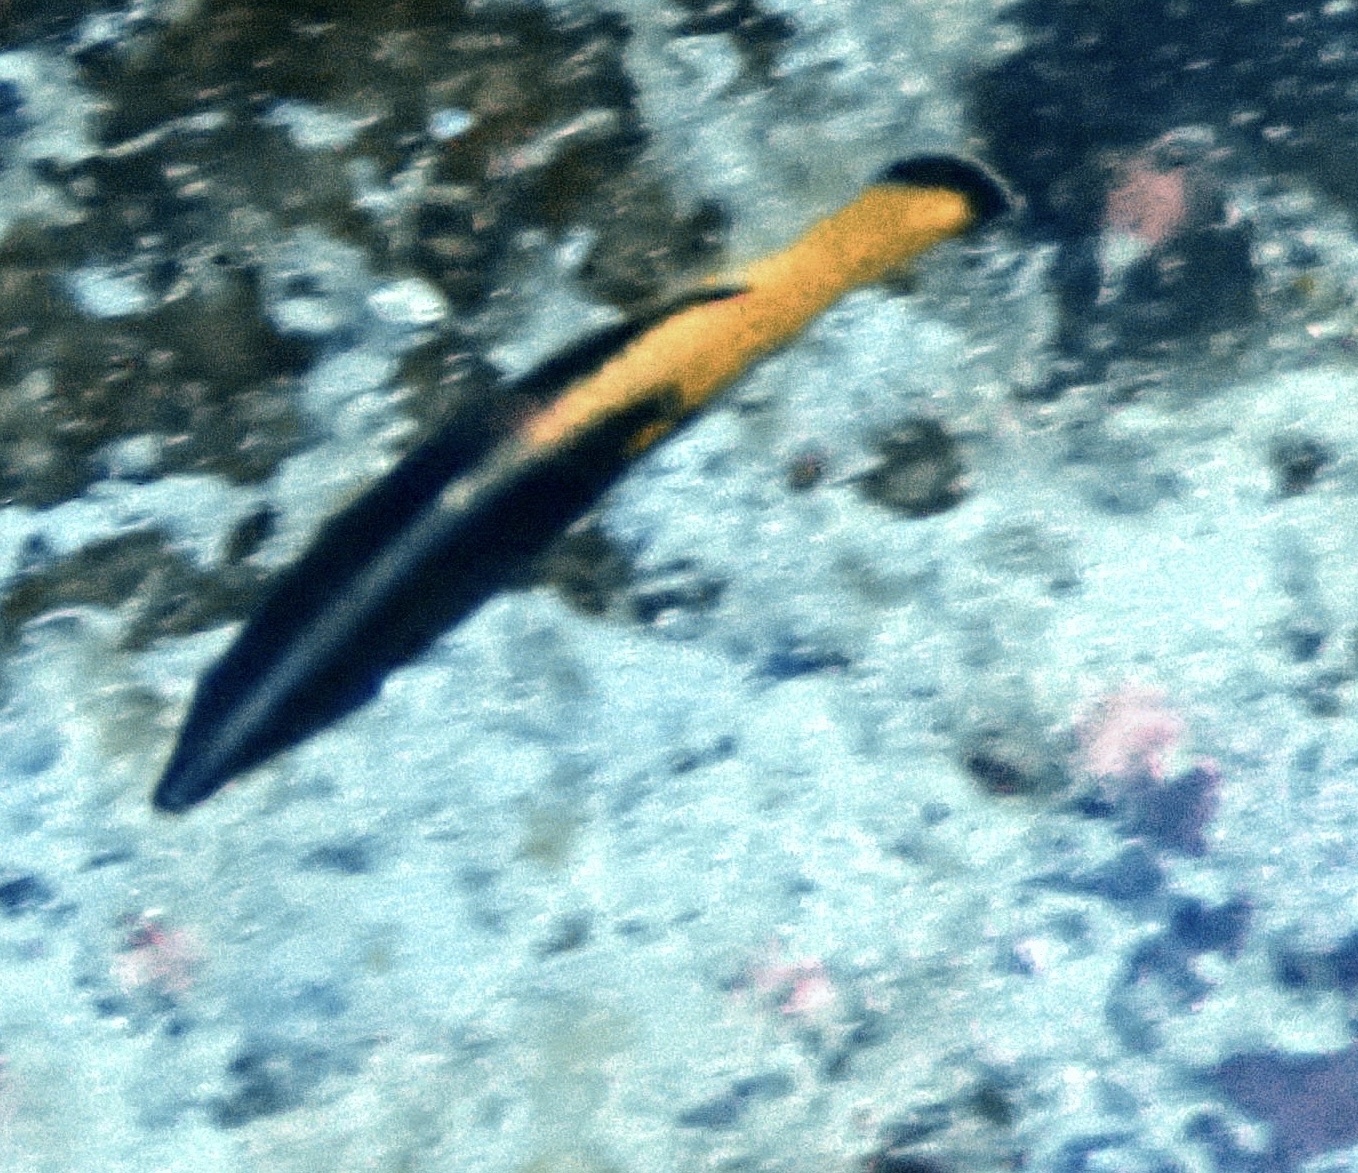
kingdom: Animalia
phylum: Chordata
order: Perciformes
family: Labridae
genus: Labroides
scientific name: Labroides bicolor
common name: Bicolor cleaner wrasse
